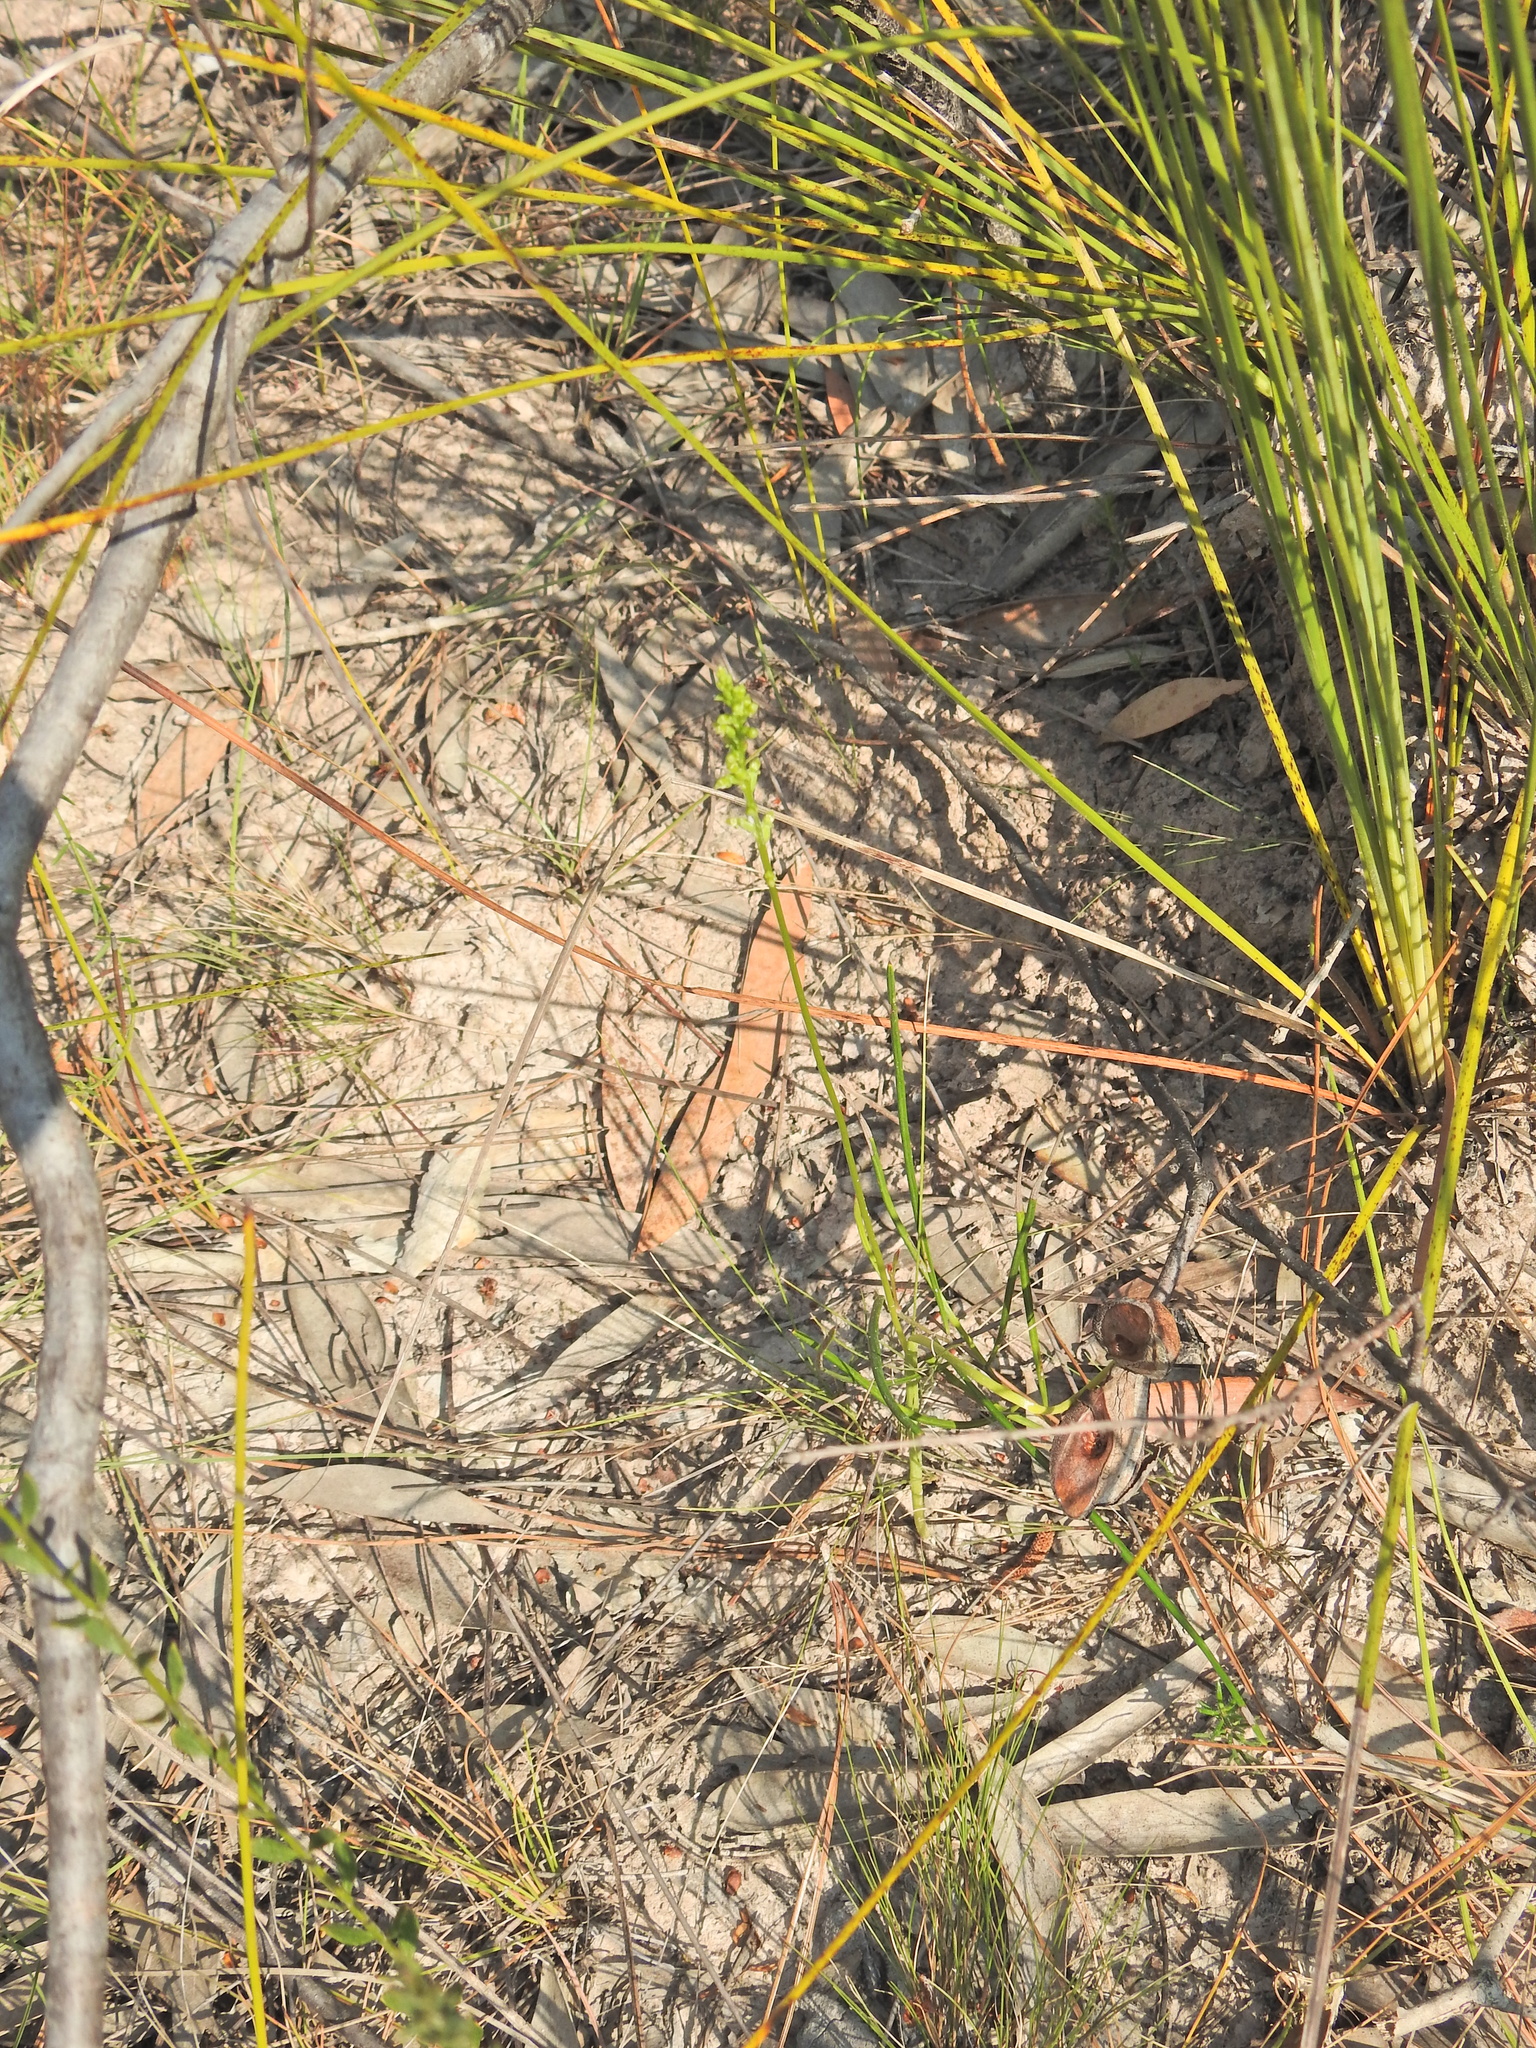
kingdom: Plantae
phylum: Tracheophyta
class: Liliopsida
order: Asparagales
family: Orchidaceae
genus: Microtis
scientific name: Microtis parviflora
